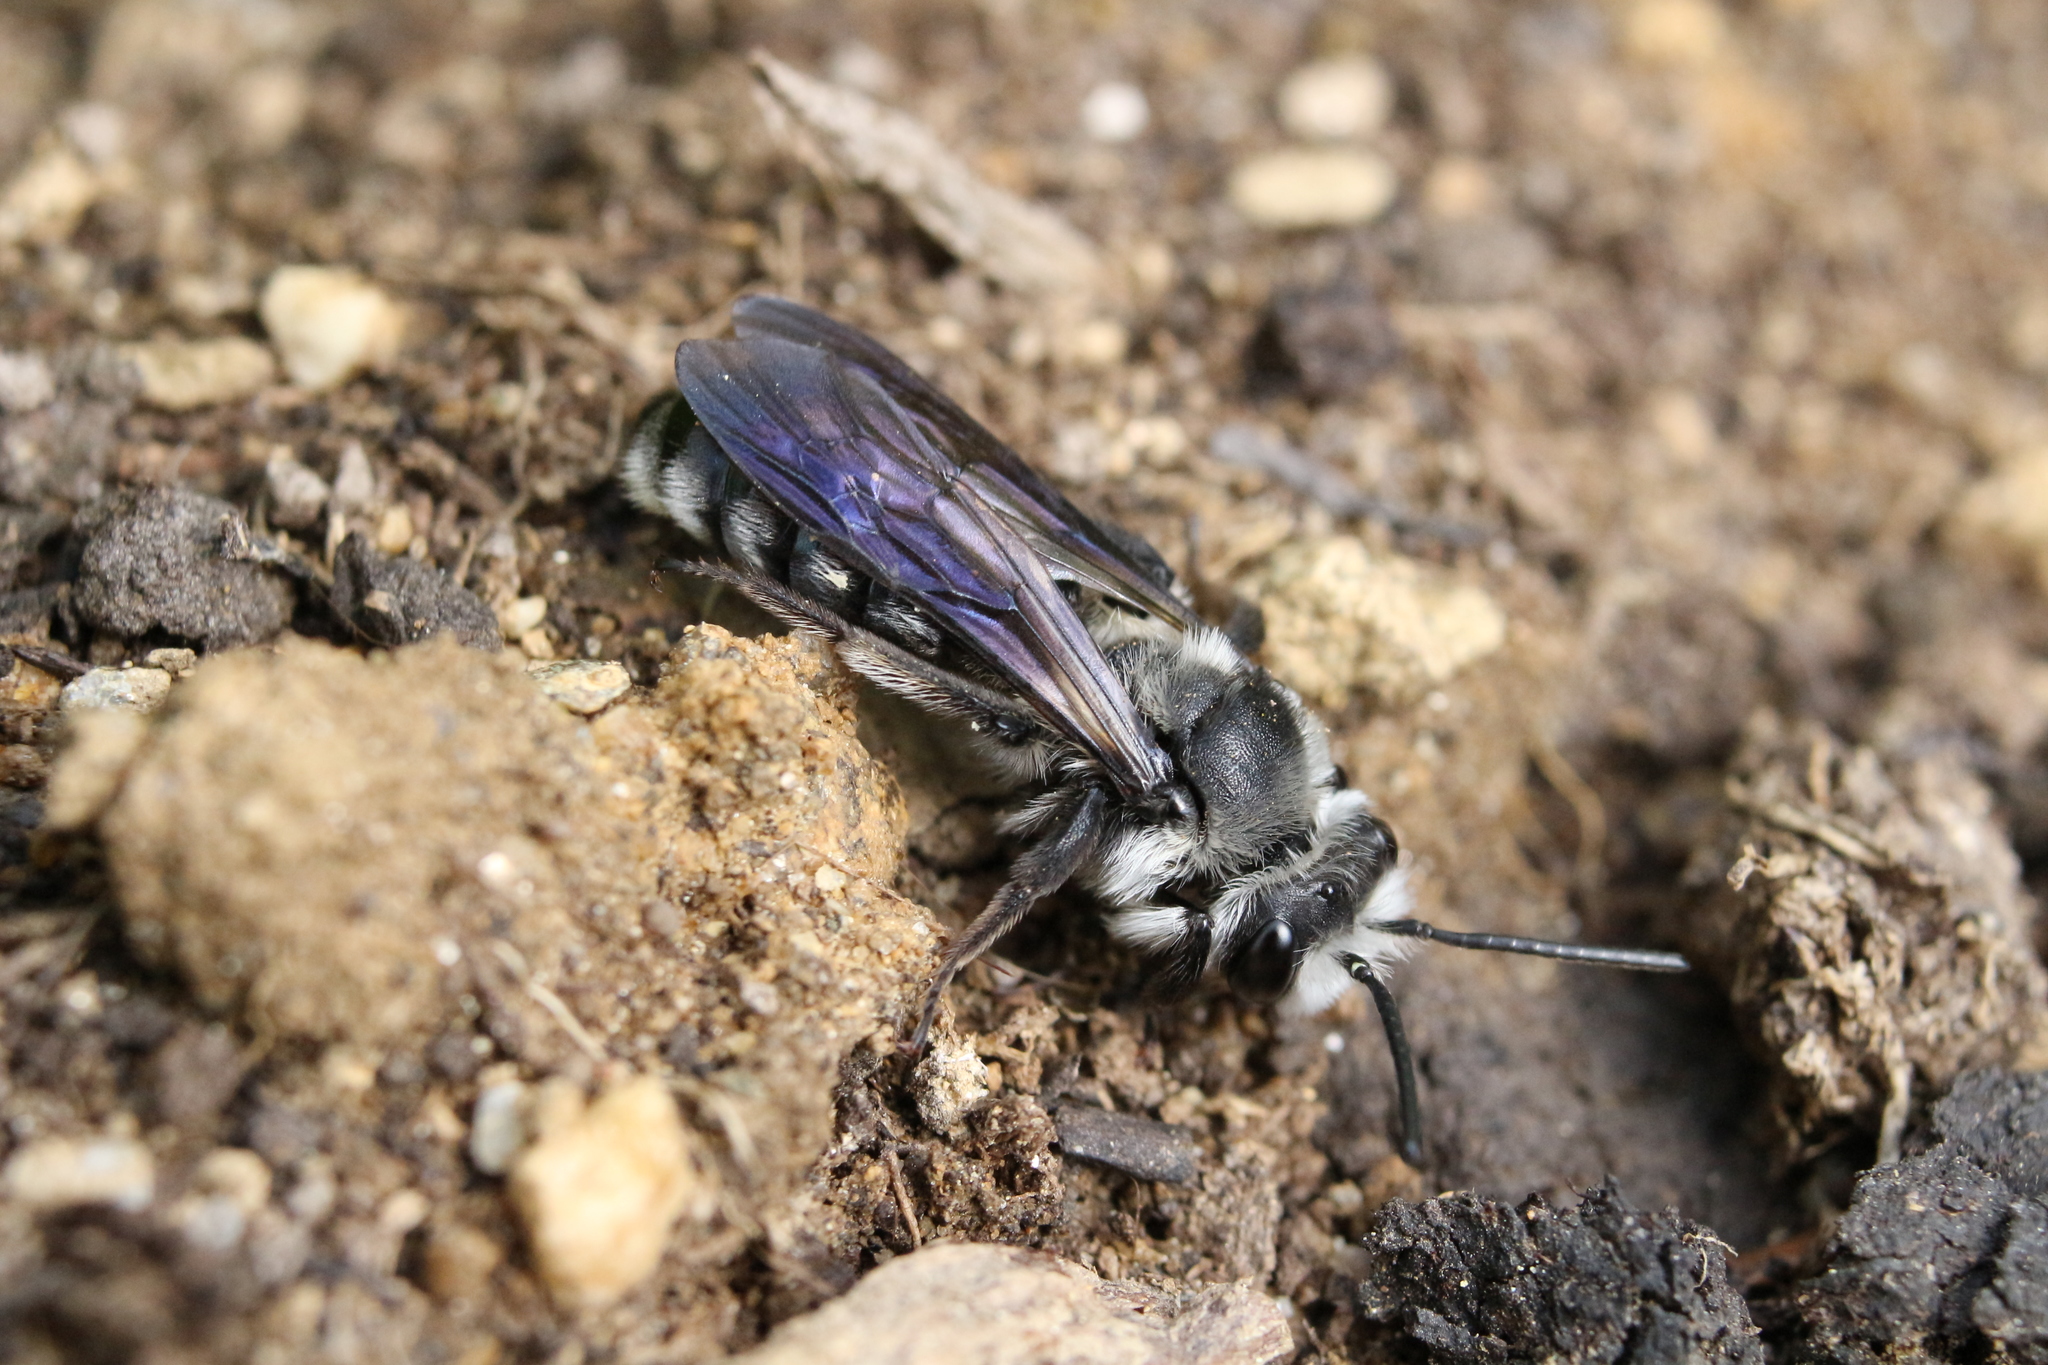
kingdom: Animalia
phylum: Arthropoda
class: Insecta
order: Hymenoptera
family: Andrenidae
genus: Andrena
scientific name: Andrena agilissima
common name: Violet-winged mining bee
